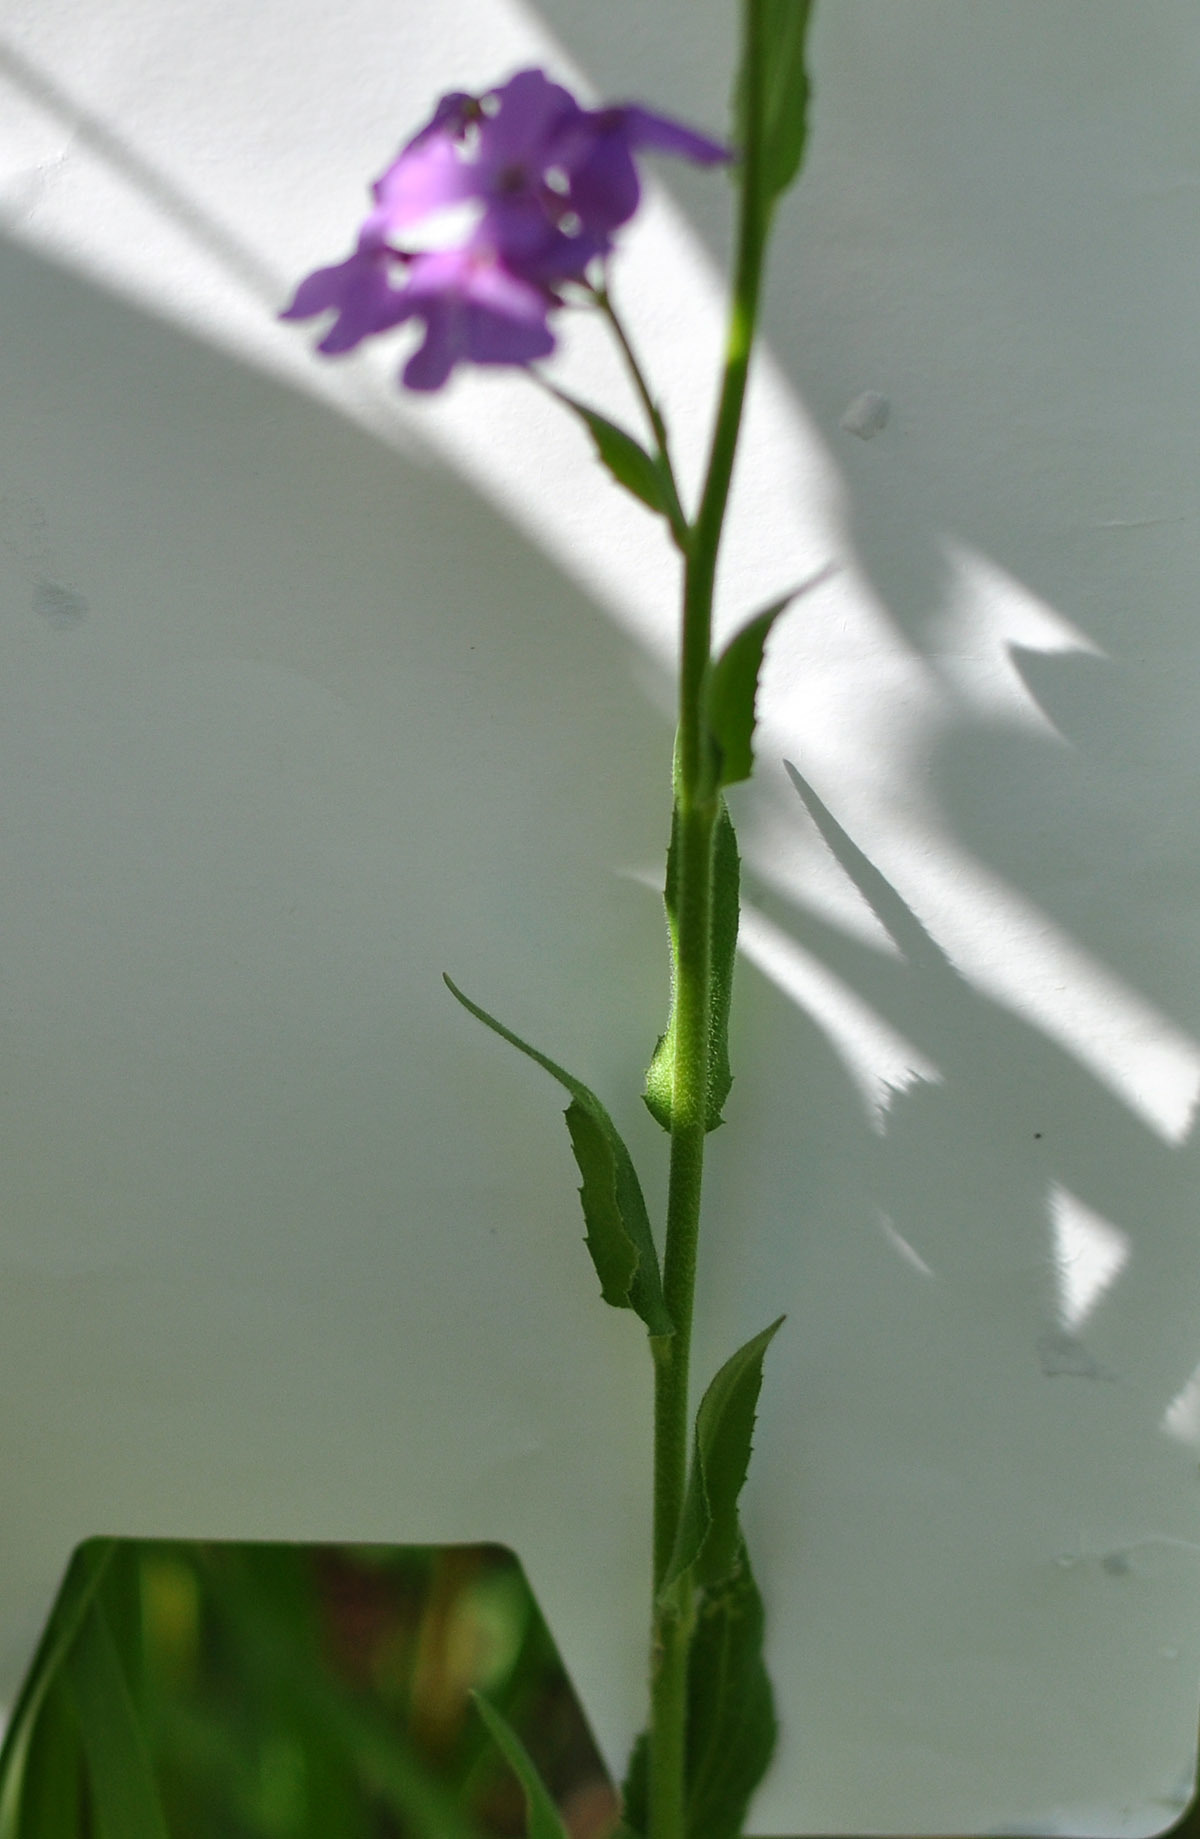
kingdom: Plantae
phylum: Tracheophyta
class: Magnoliopsida
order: Brassicales
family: Brassicaceae
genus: Hesperis
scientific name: Hesperis matronalis
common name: Dame's-violet
